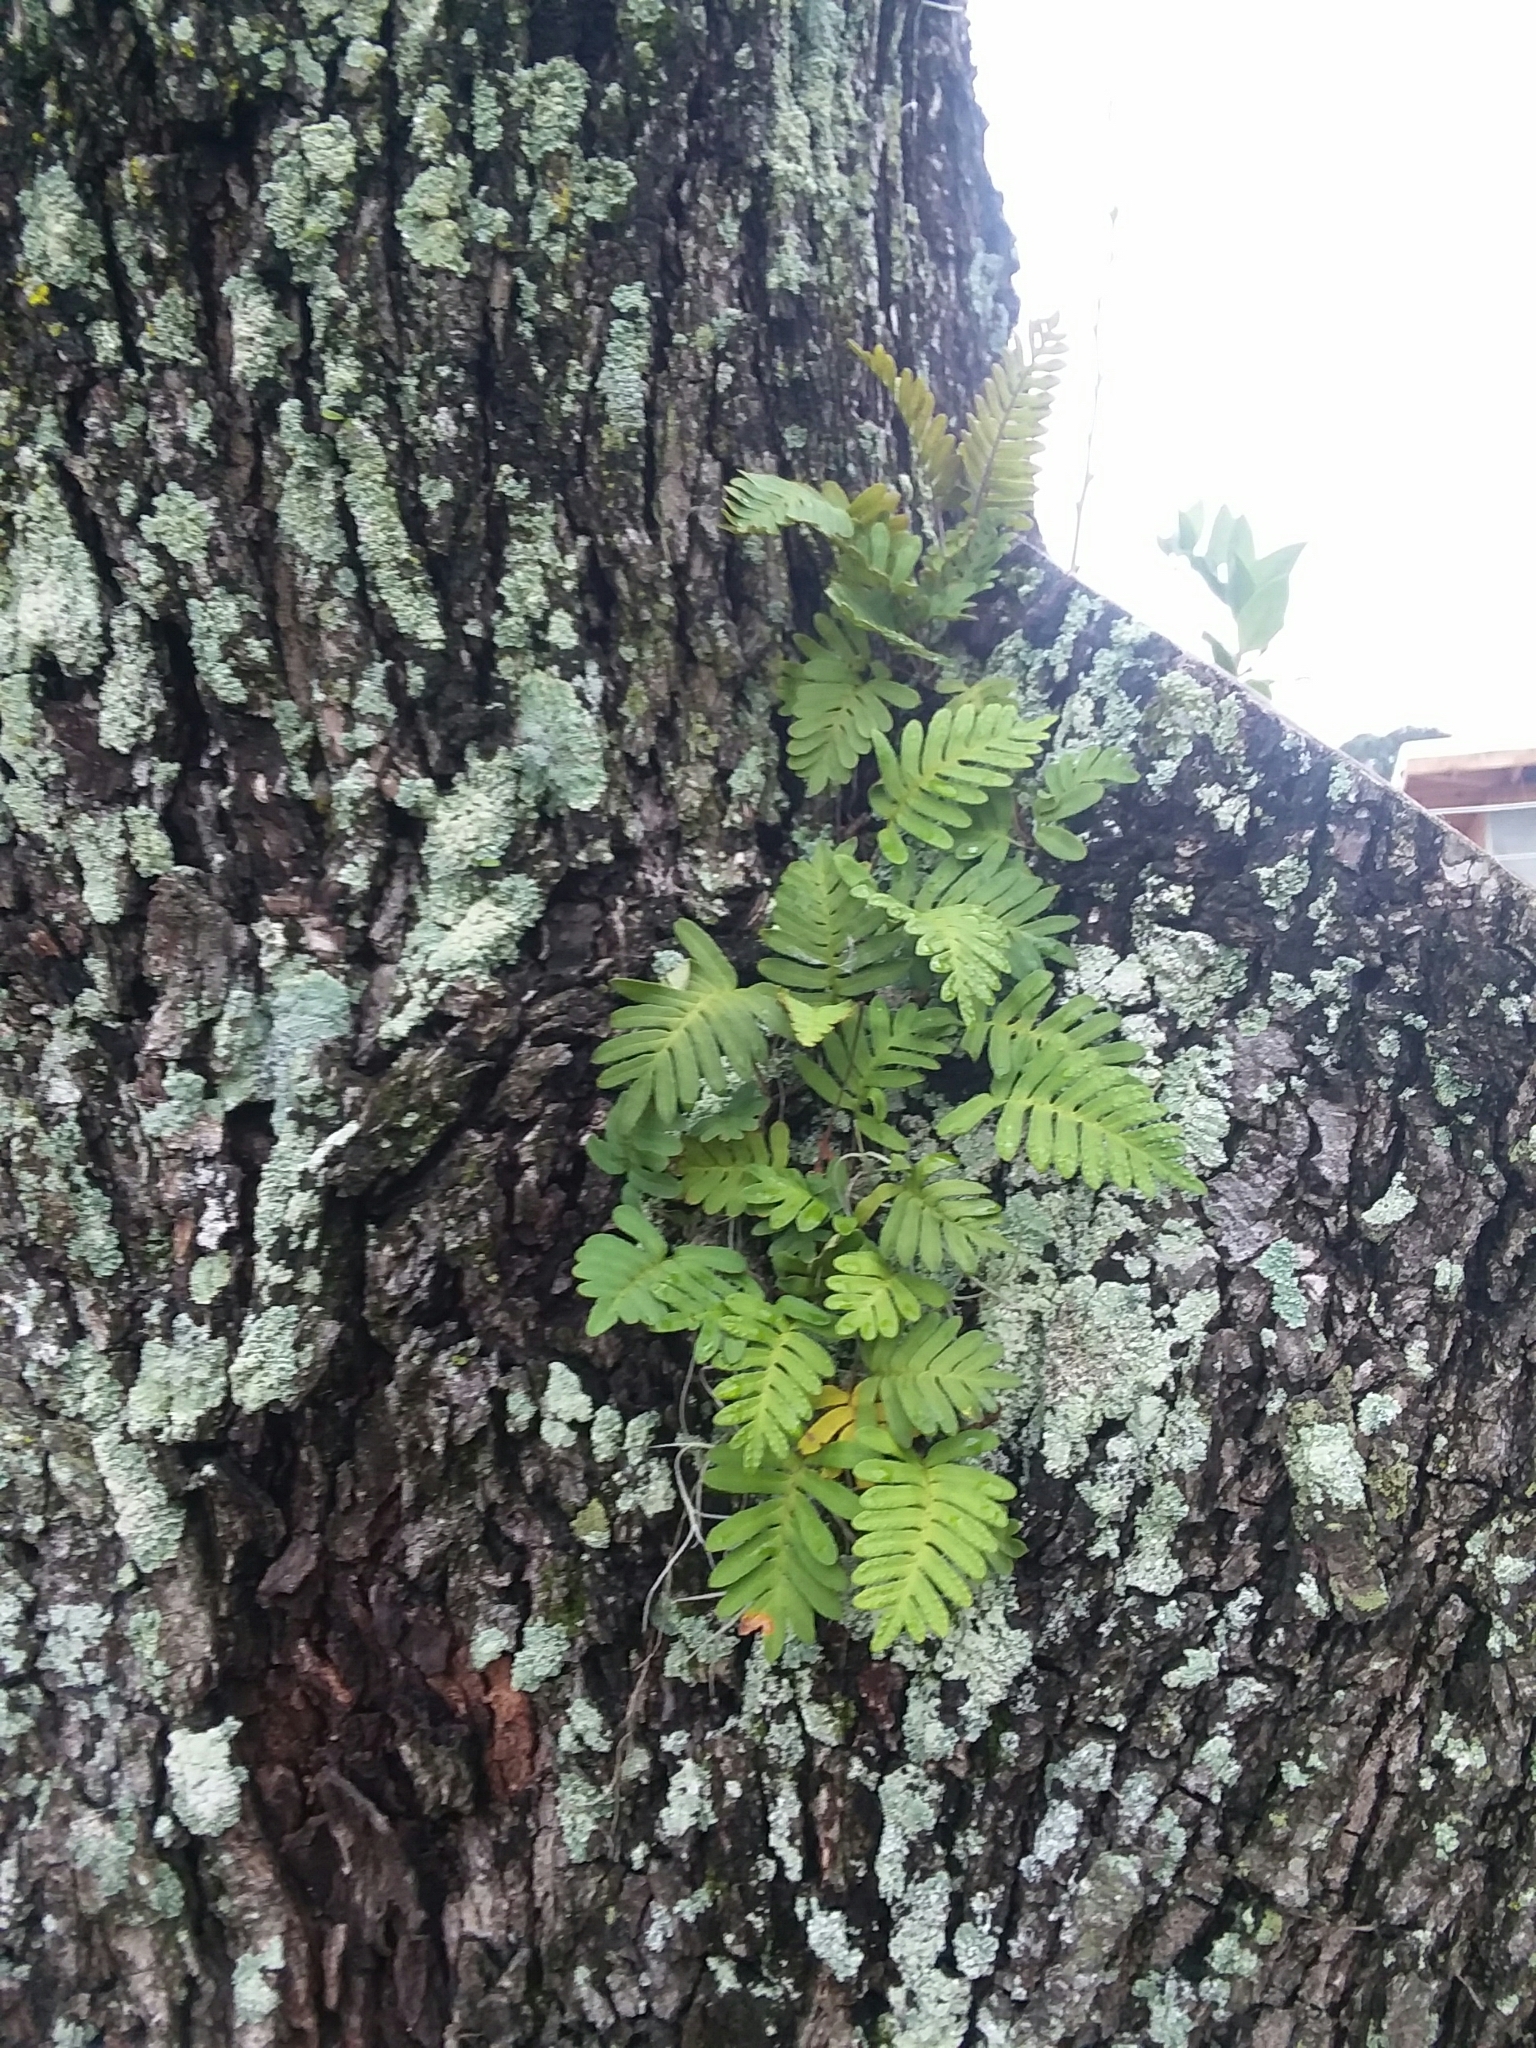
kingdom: Plantae
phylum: Tracheophyta
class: Polypodiopsida
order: Polypodiales
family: Polypodiaceae
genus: Pleopeltis
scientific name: Pleopeltis michauxiana
